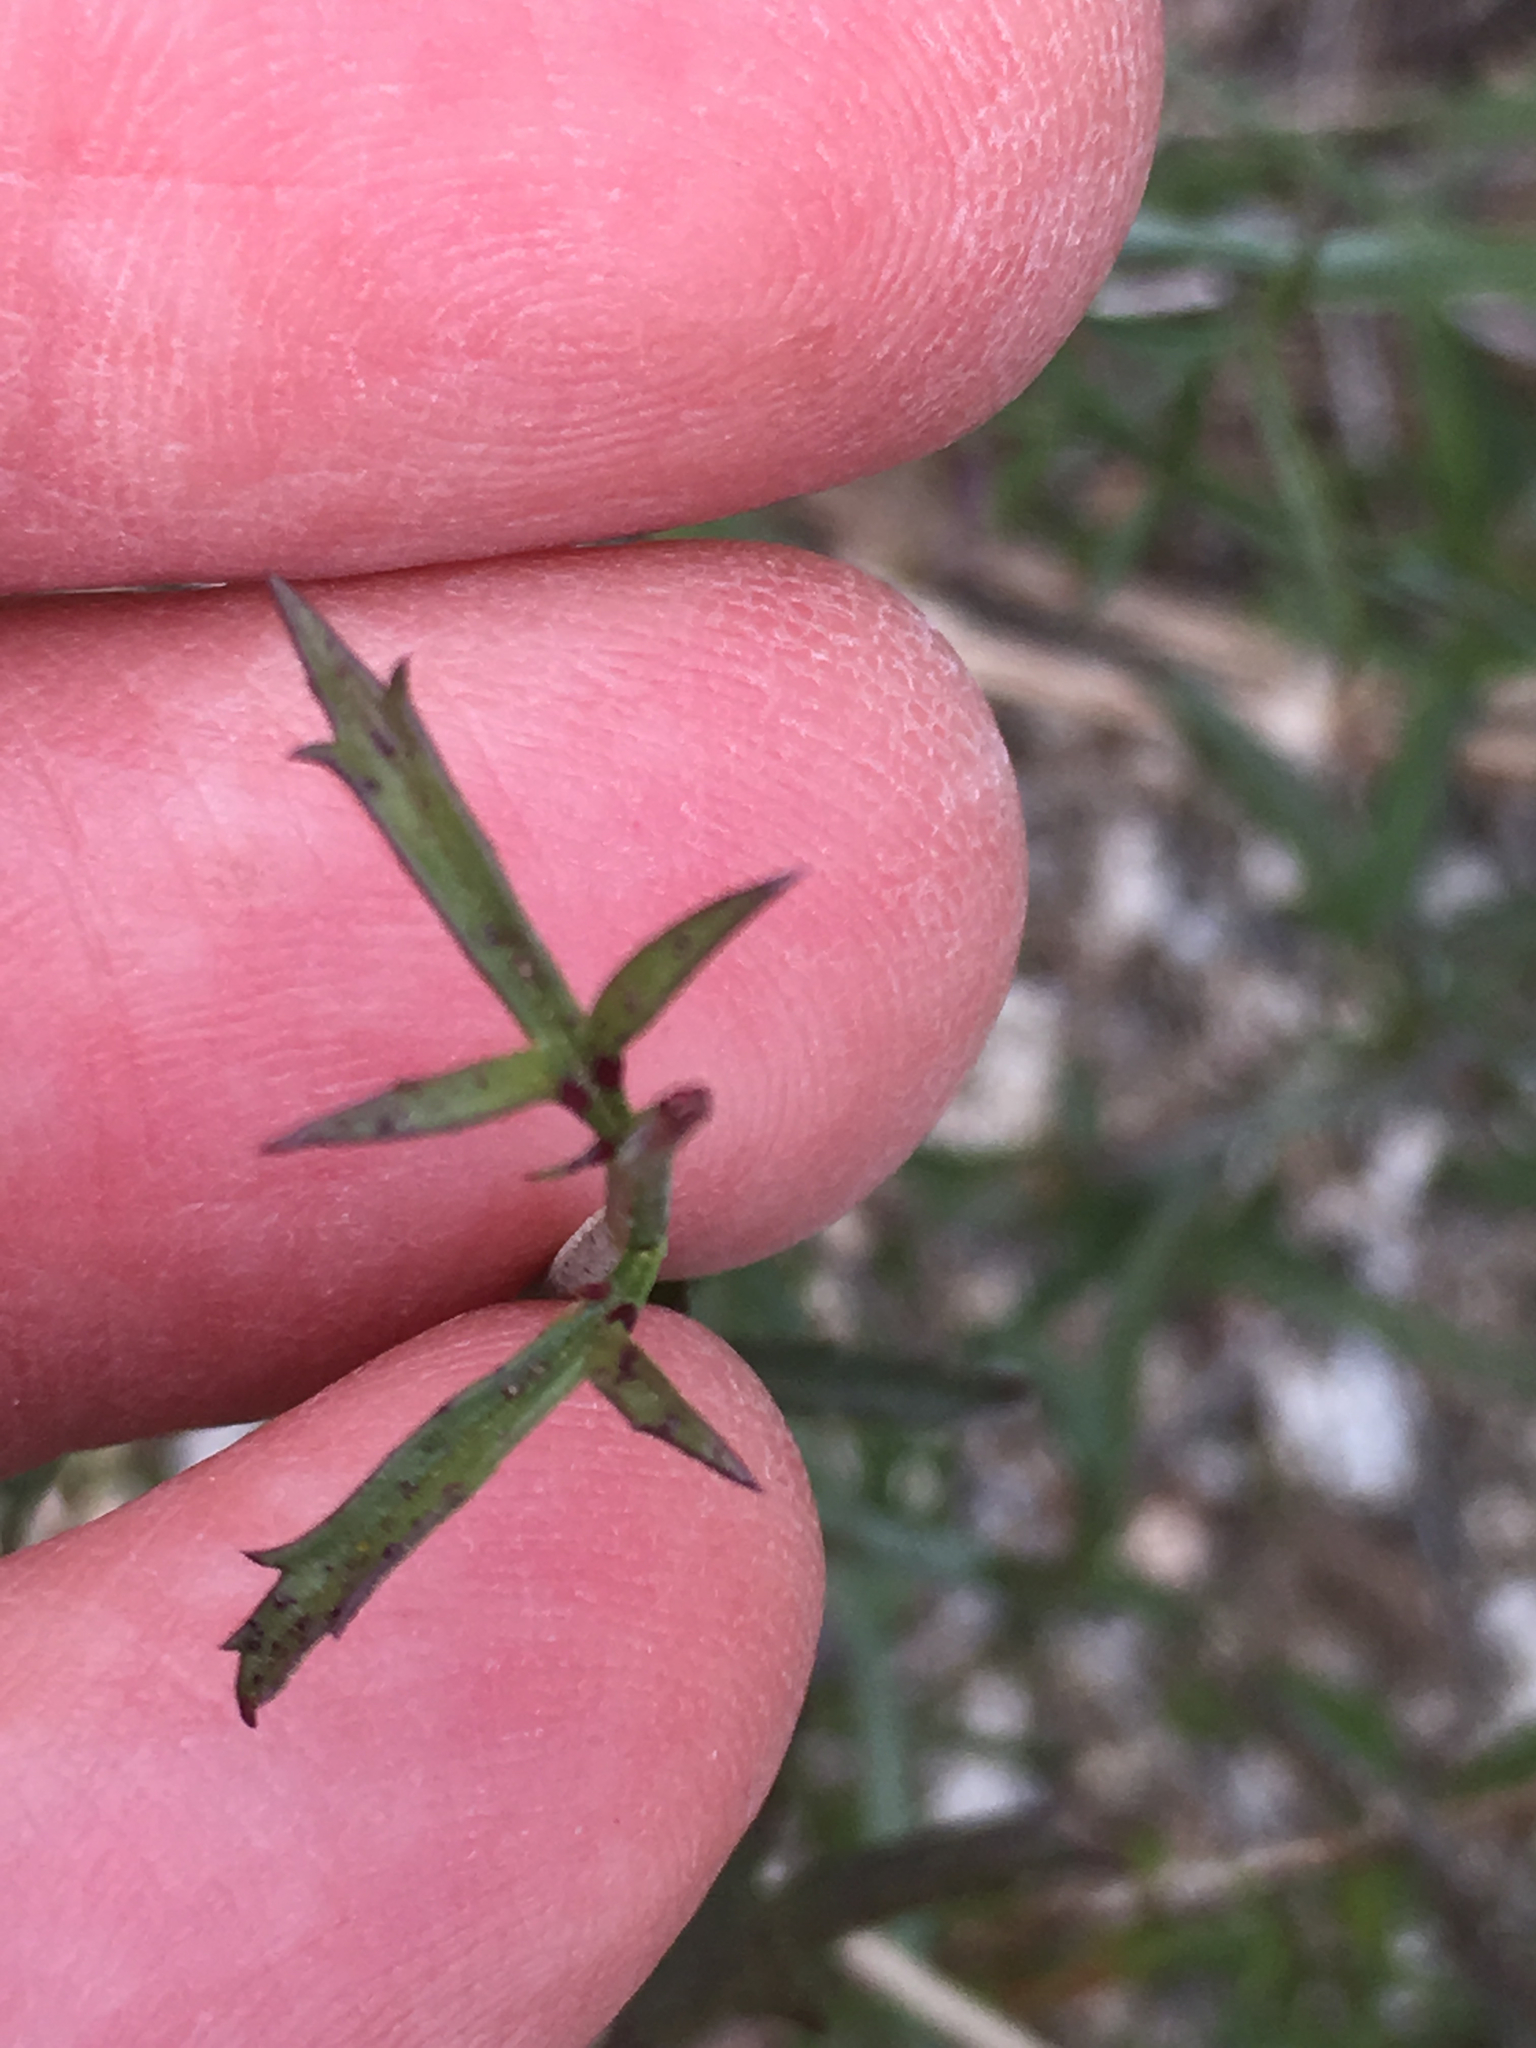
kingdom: Plantae
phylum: Tracheophyta
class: Magnoliopsida
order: Asterales
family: Asteraceae
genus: Adenophyllum
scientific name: Adenophyllum porophylloides
